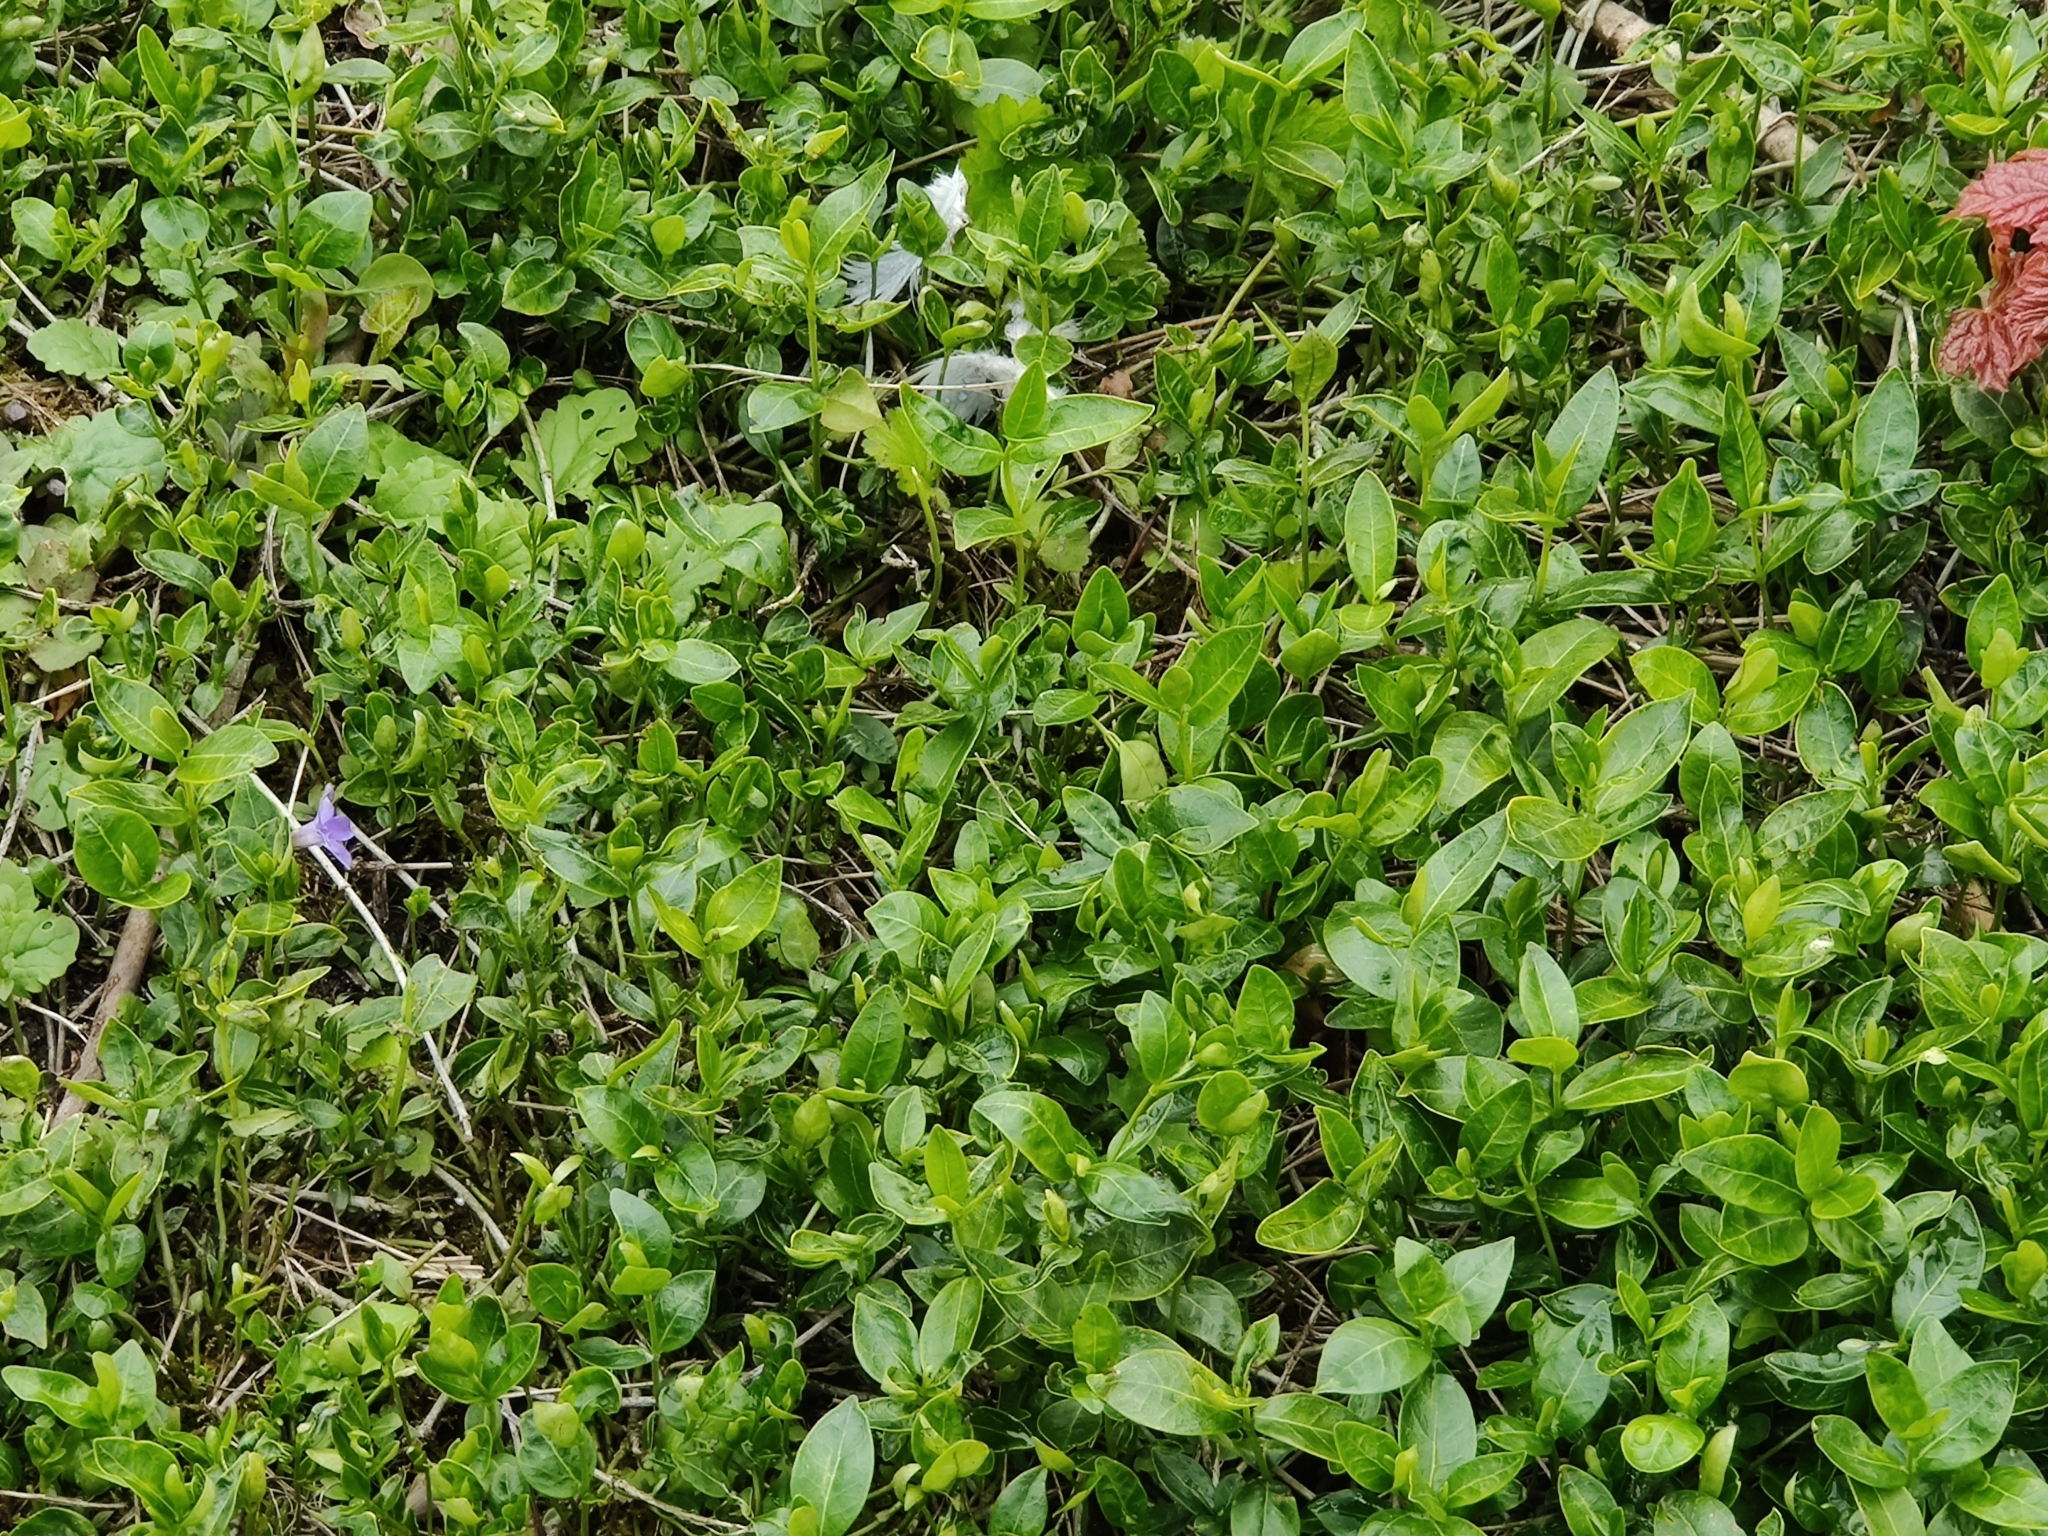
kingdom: Plantae
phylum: Tracheophyta
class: Magnoliopsida
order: Gentianales
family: Apocynaceae
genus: Vinca
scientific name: Vinca minor
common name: Lesser periwinkle
